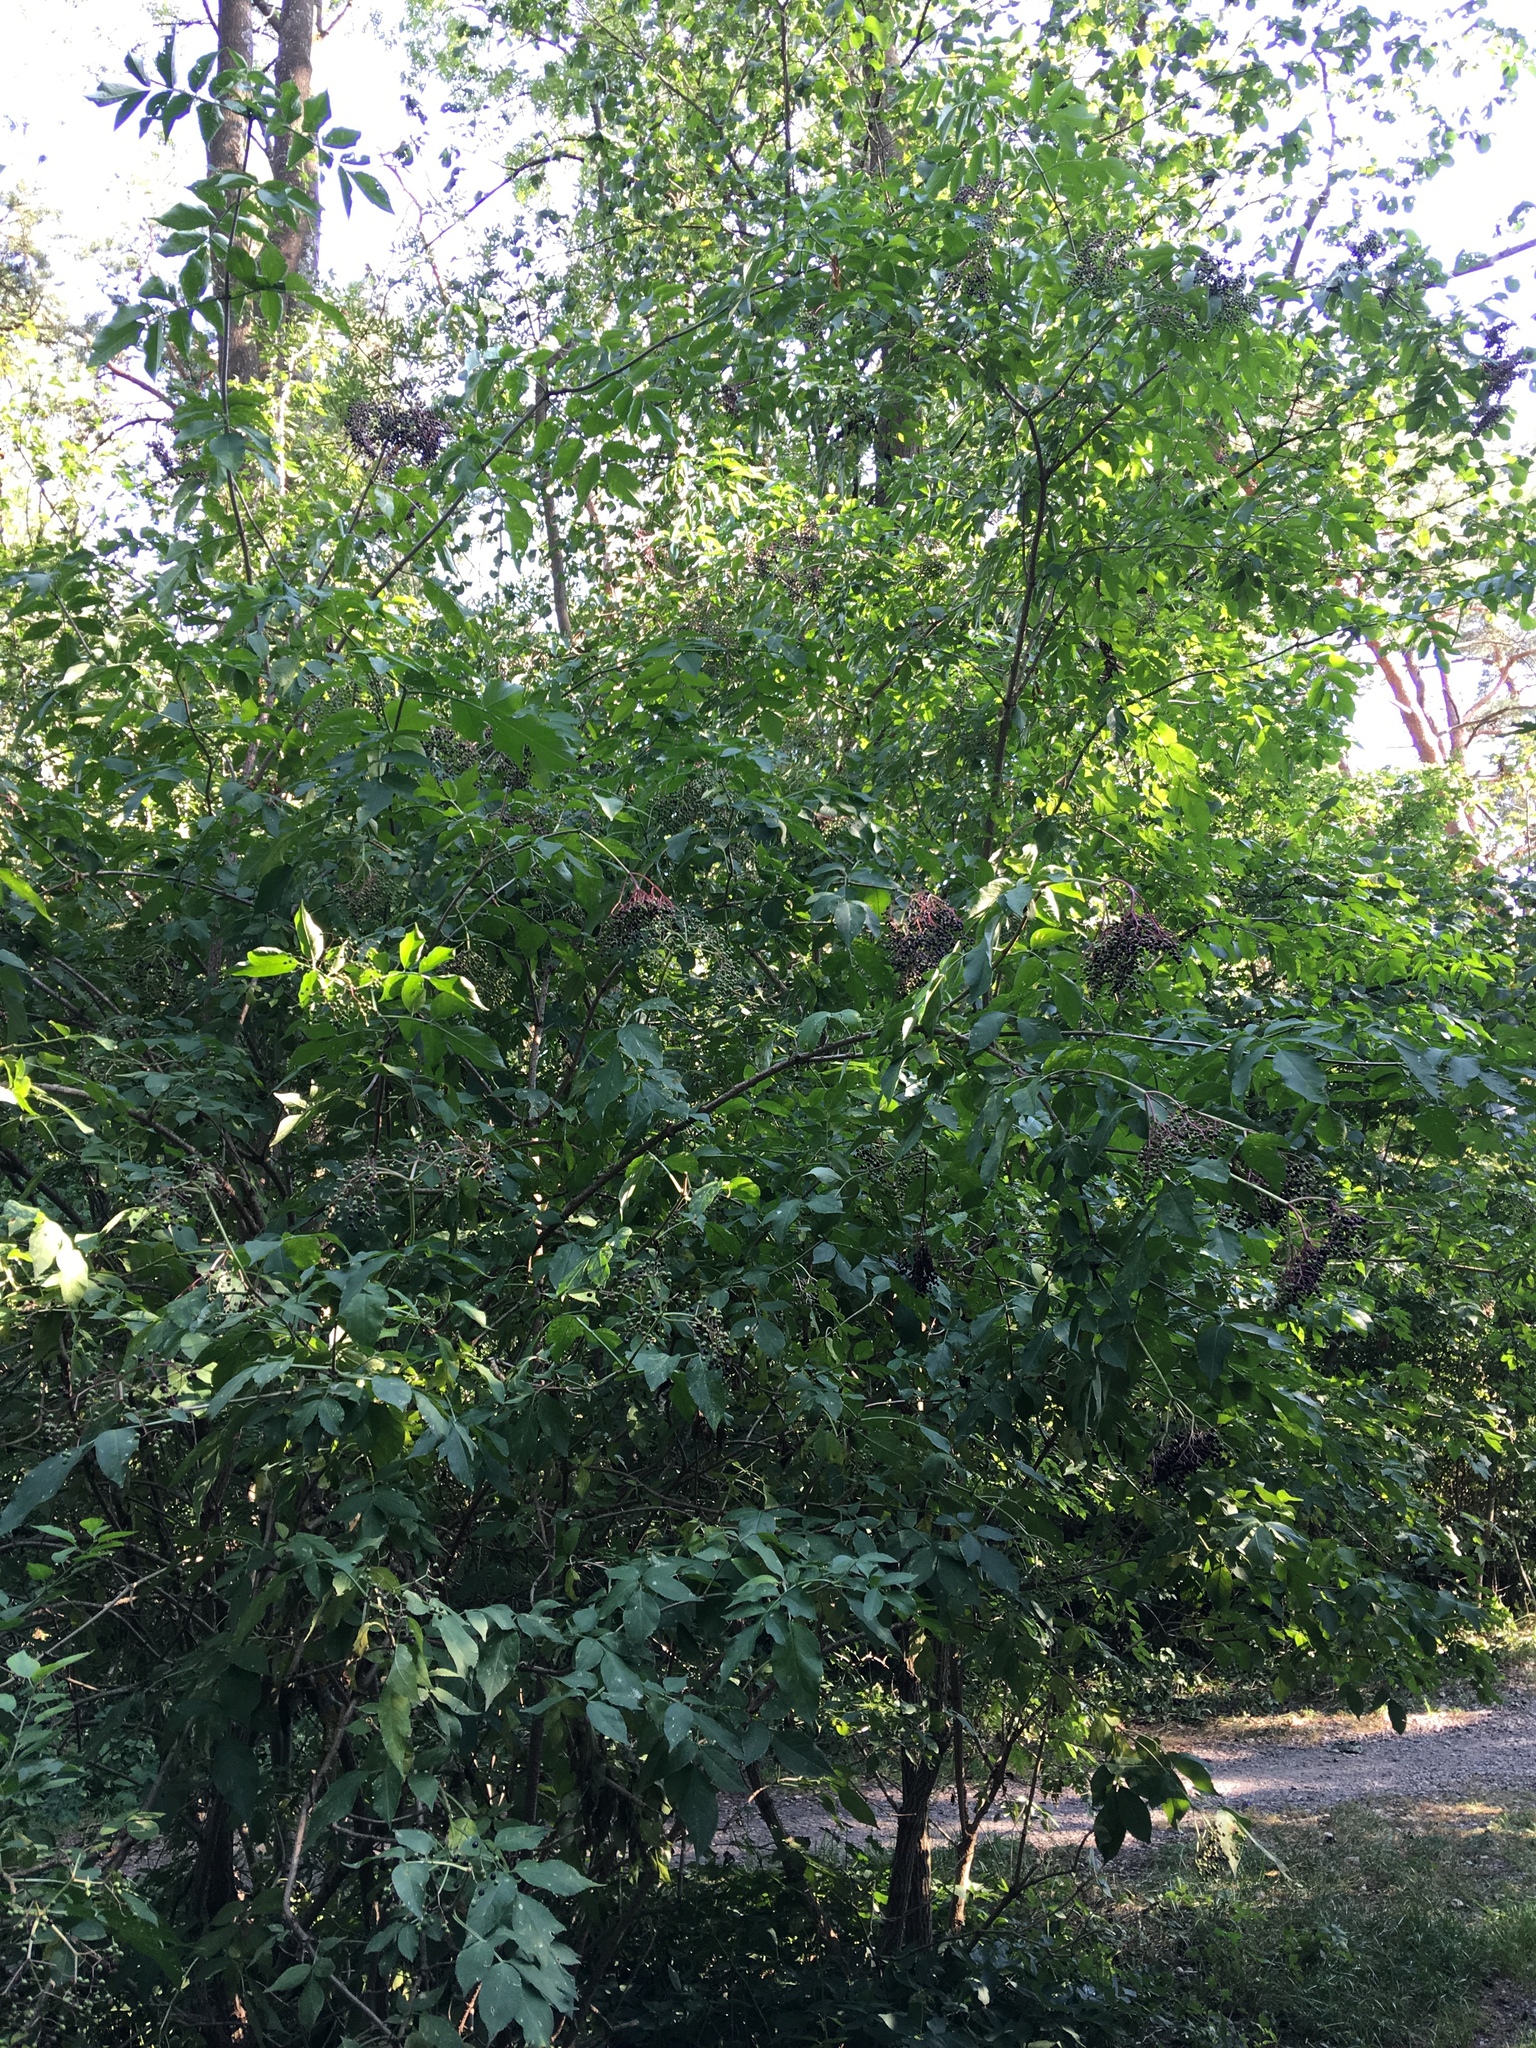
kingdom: Plantae
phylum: Tracheophyta
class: Magnoliopsida
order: Dipsacales
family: Viburnaceae
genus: Sambucus
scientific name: Sambucus nigra
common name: Elder
